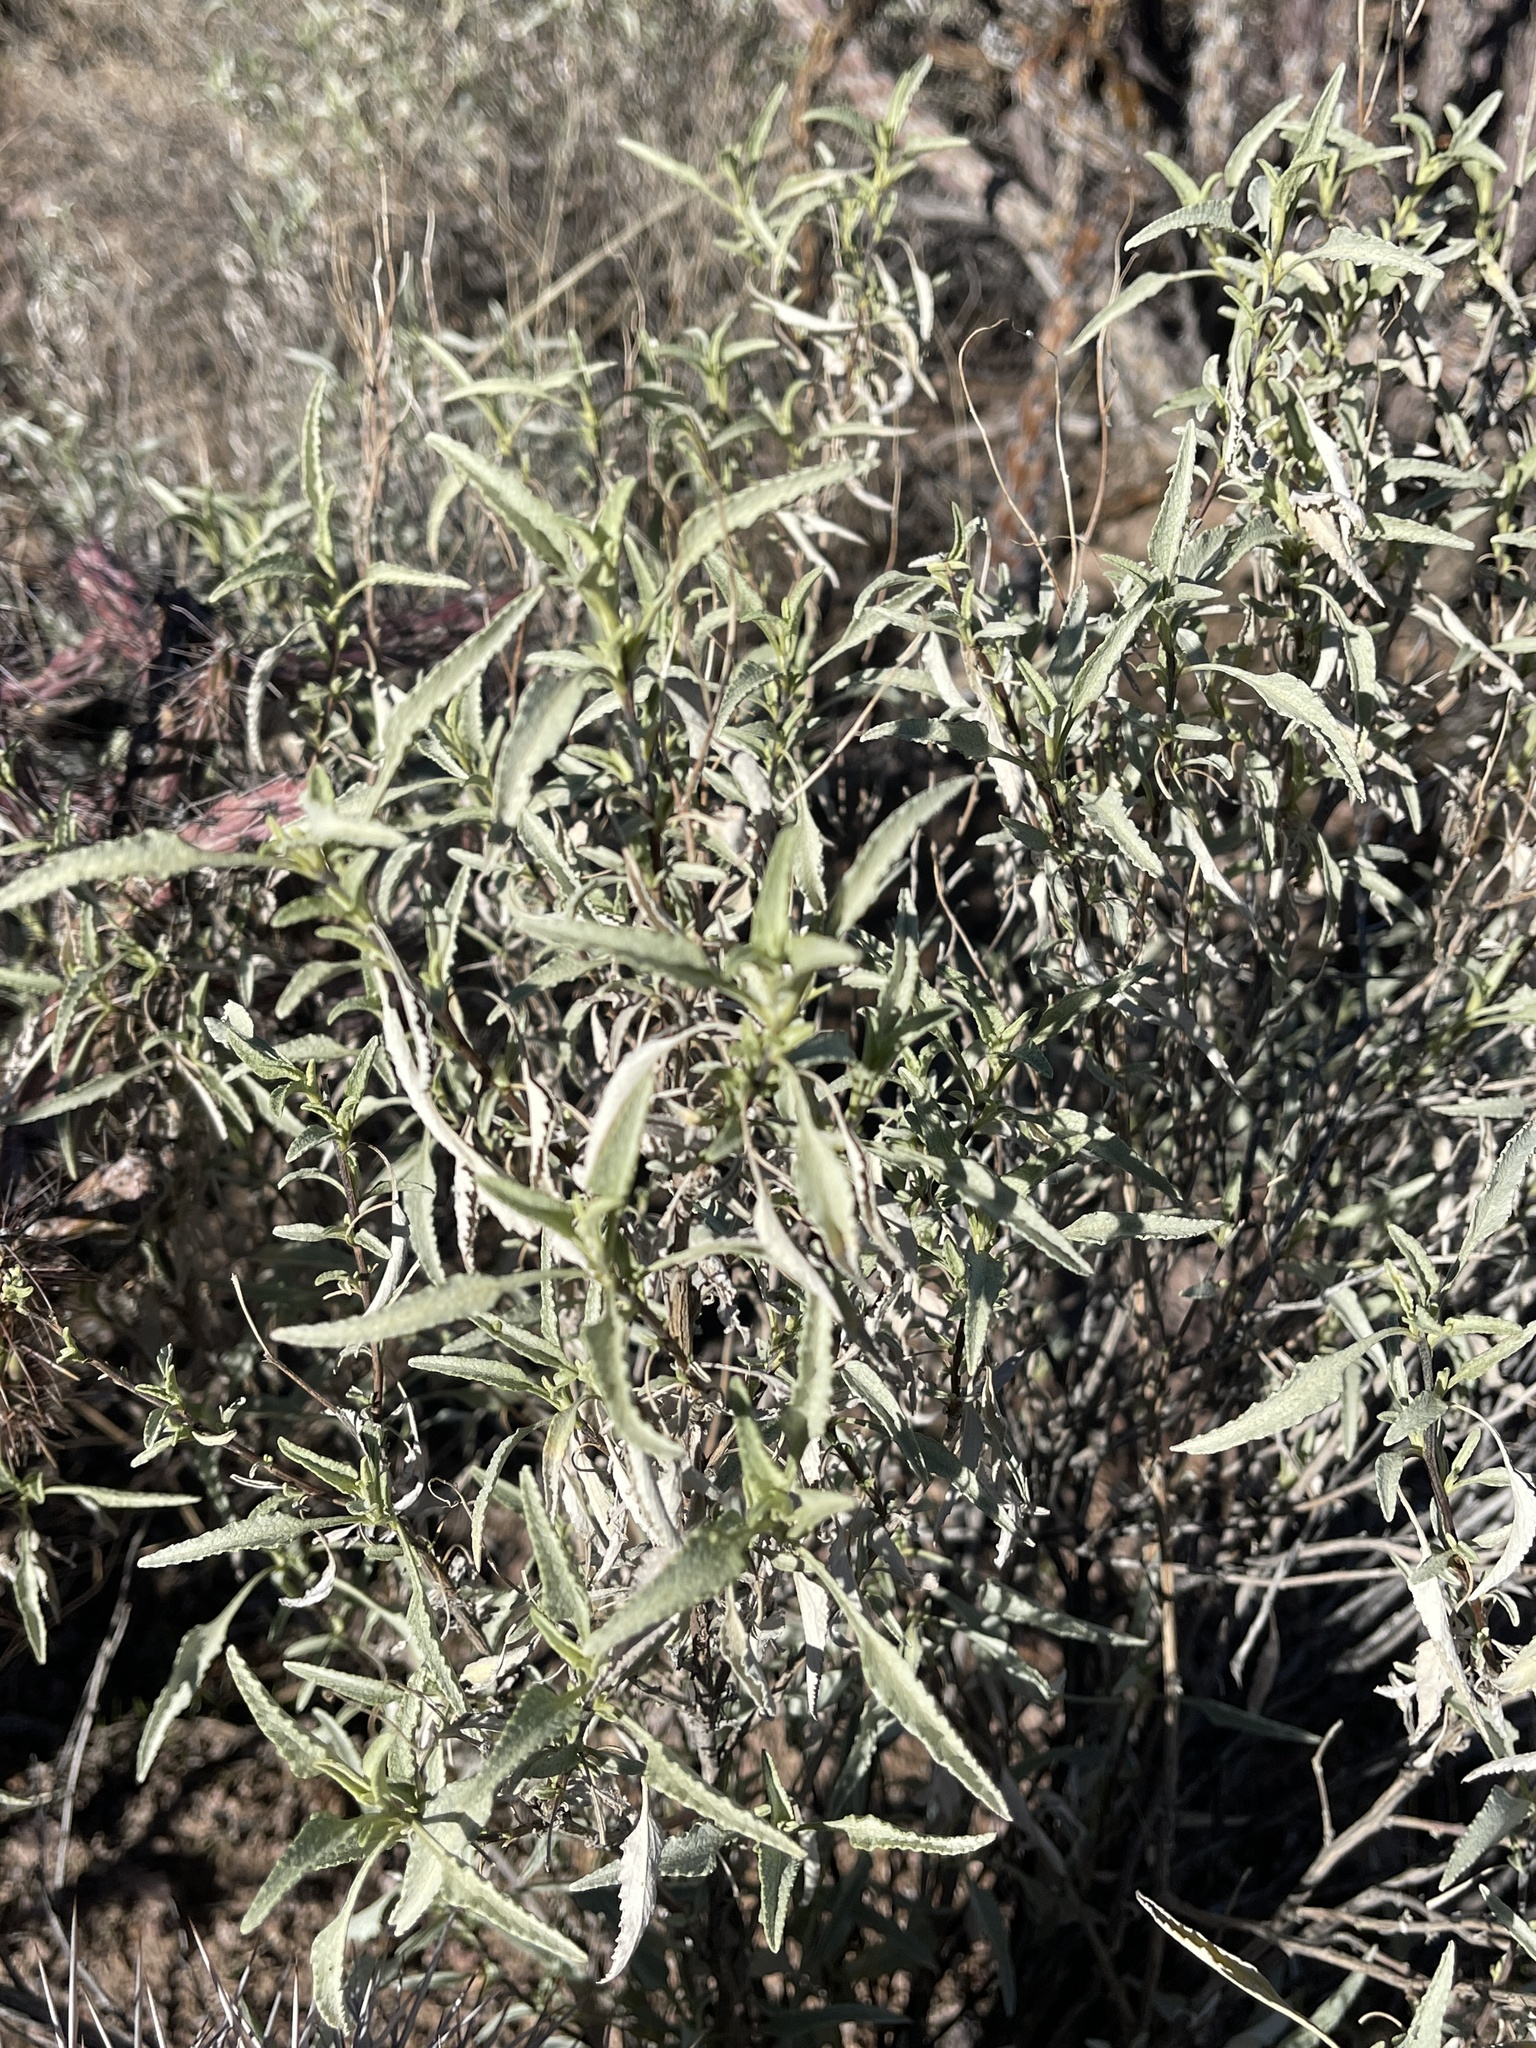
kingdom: Plantae
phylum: Tracheophyta
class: Magnoliopsida
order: Asterales
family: Asteraceae
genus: Ambrosia
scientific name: Ambrosia ambrosioides
